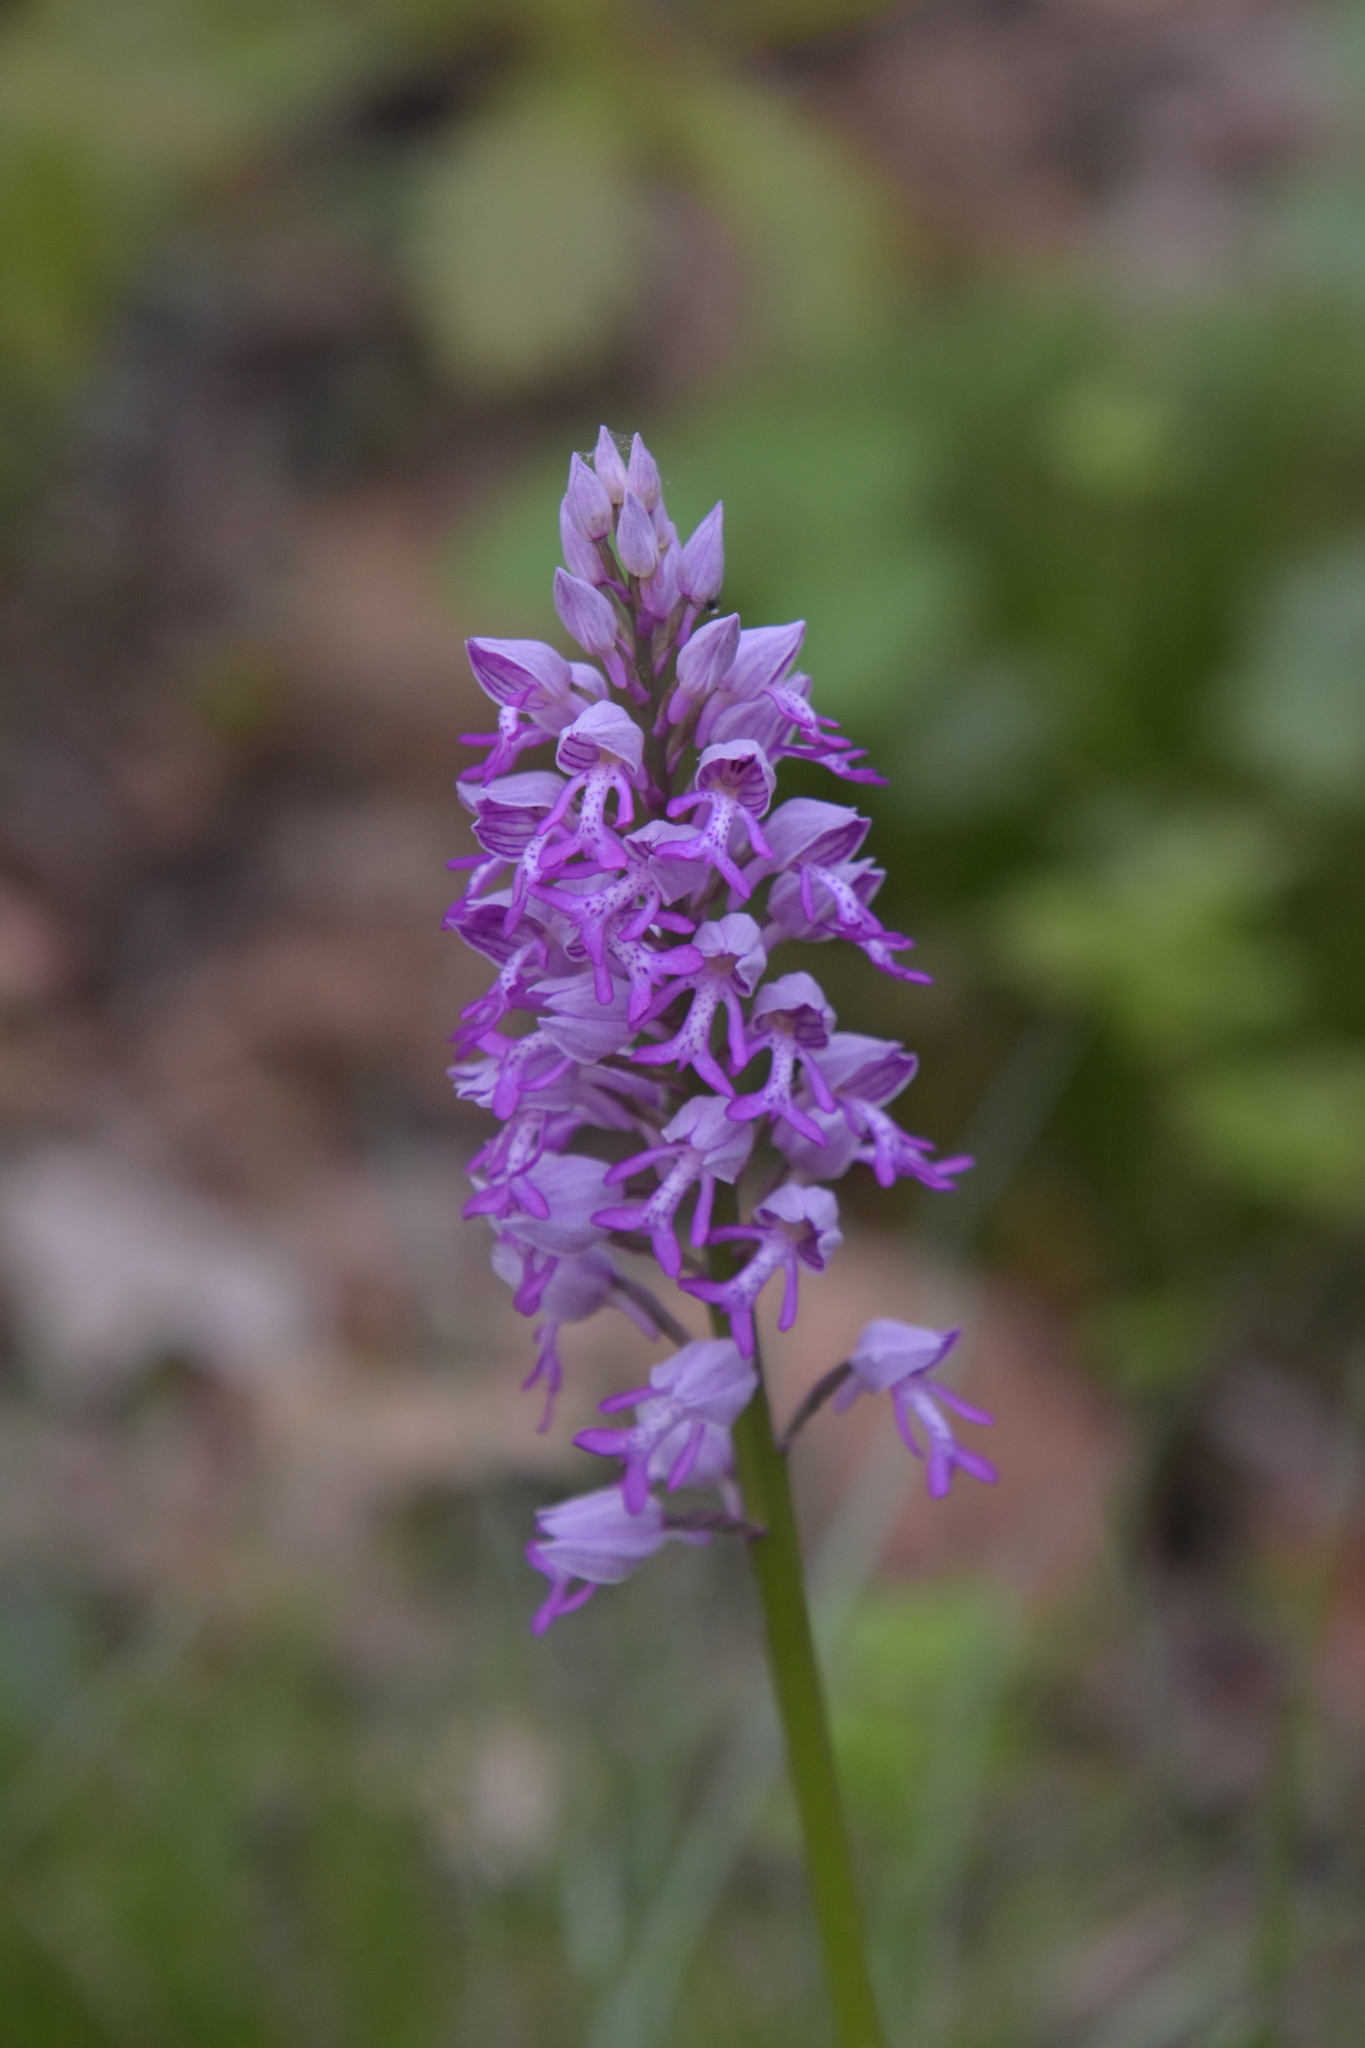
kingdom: Plantae
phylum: Tracheophyta
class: Liliopsida
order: Asparagales
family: Orchidaceae
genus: Orchis
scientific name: Orchis militaris
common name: Military orchid
